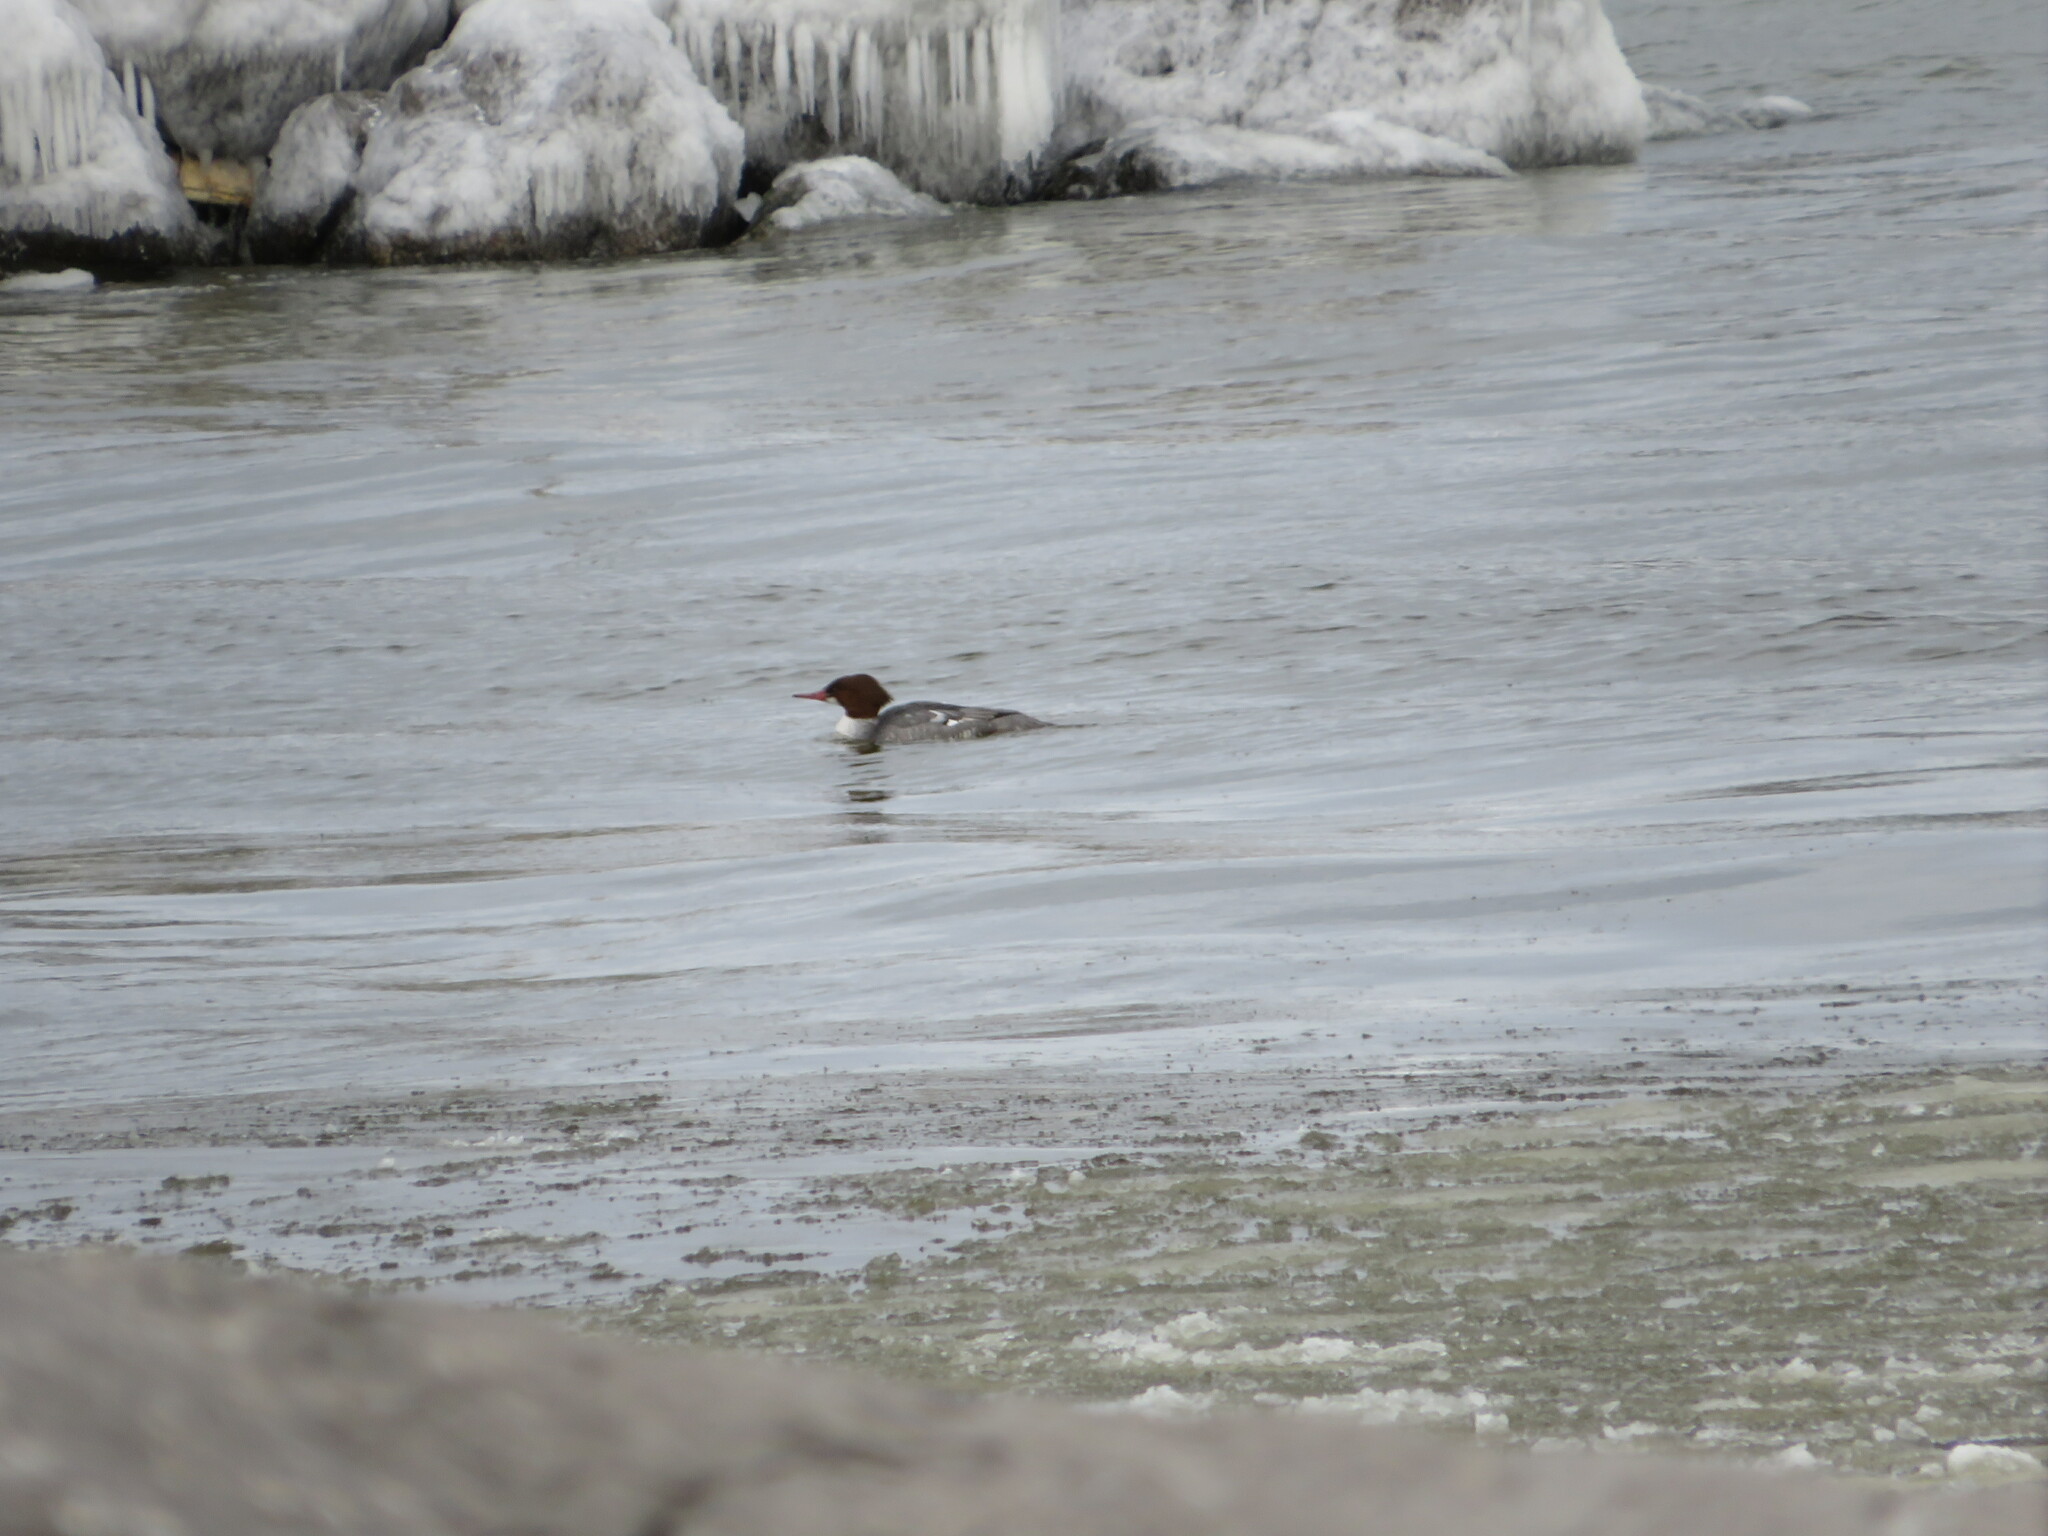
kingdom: Animalia
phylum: Chordata
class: Aves
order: Anseriformes
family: Anatidae
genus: Mergus
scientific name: Mergus merganser
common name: Common merganser
